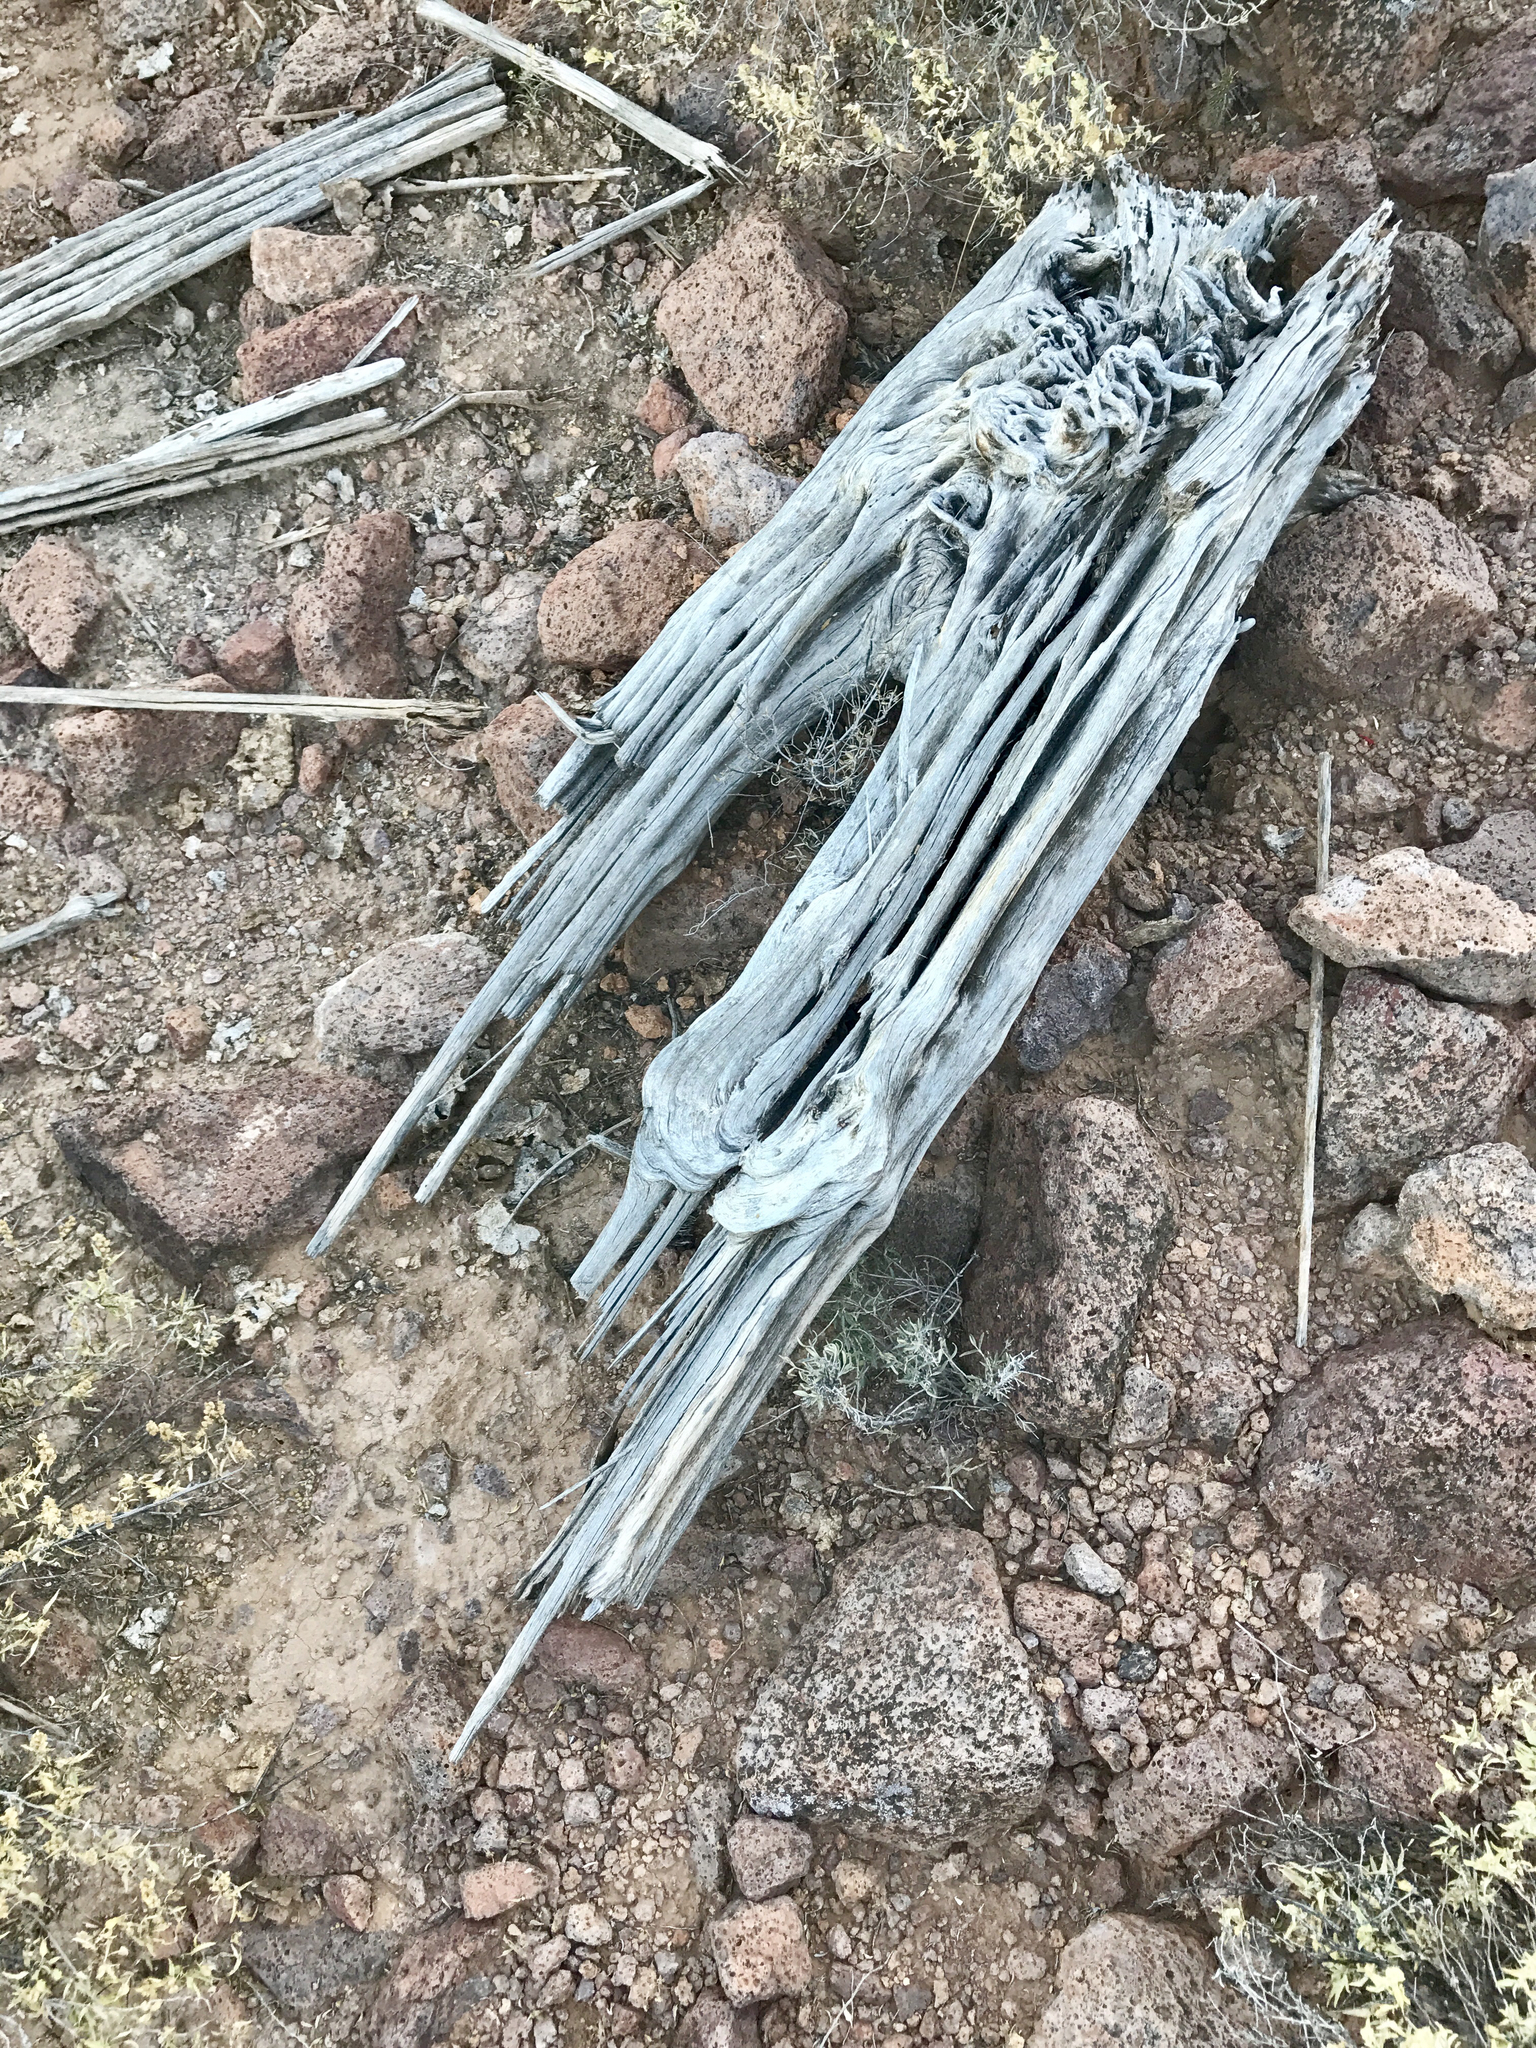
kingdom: Plantae
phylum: Tracheophyta
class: Magnoliopsida
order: Caryophyllales
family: Cactaceae
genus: Carnegiea
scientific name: Carnegiea gigantea
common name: Saguaro
